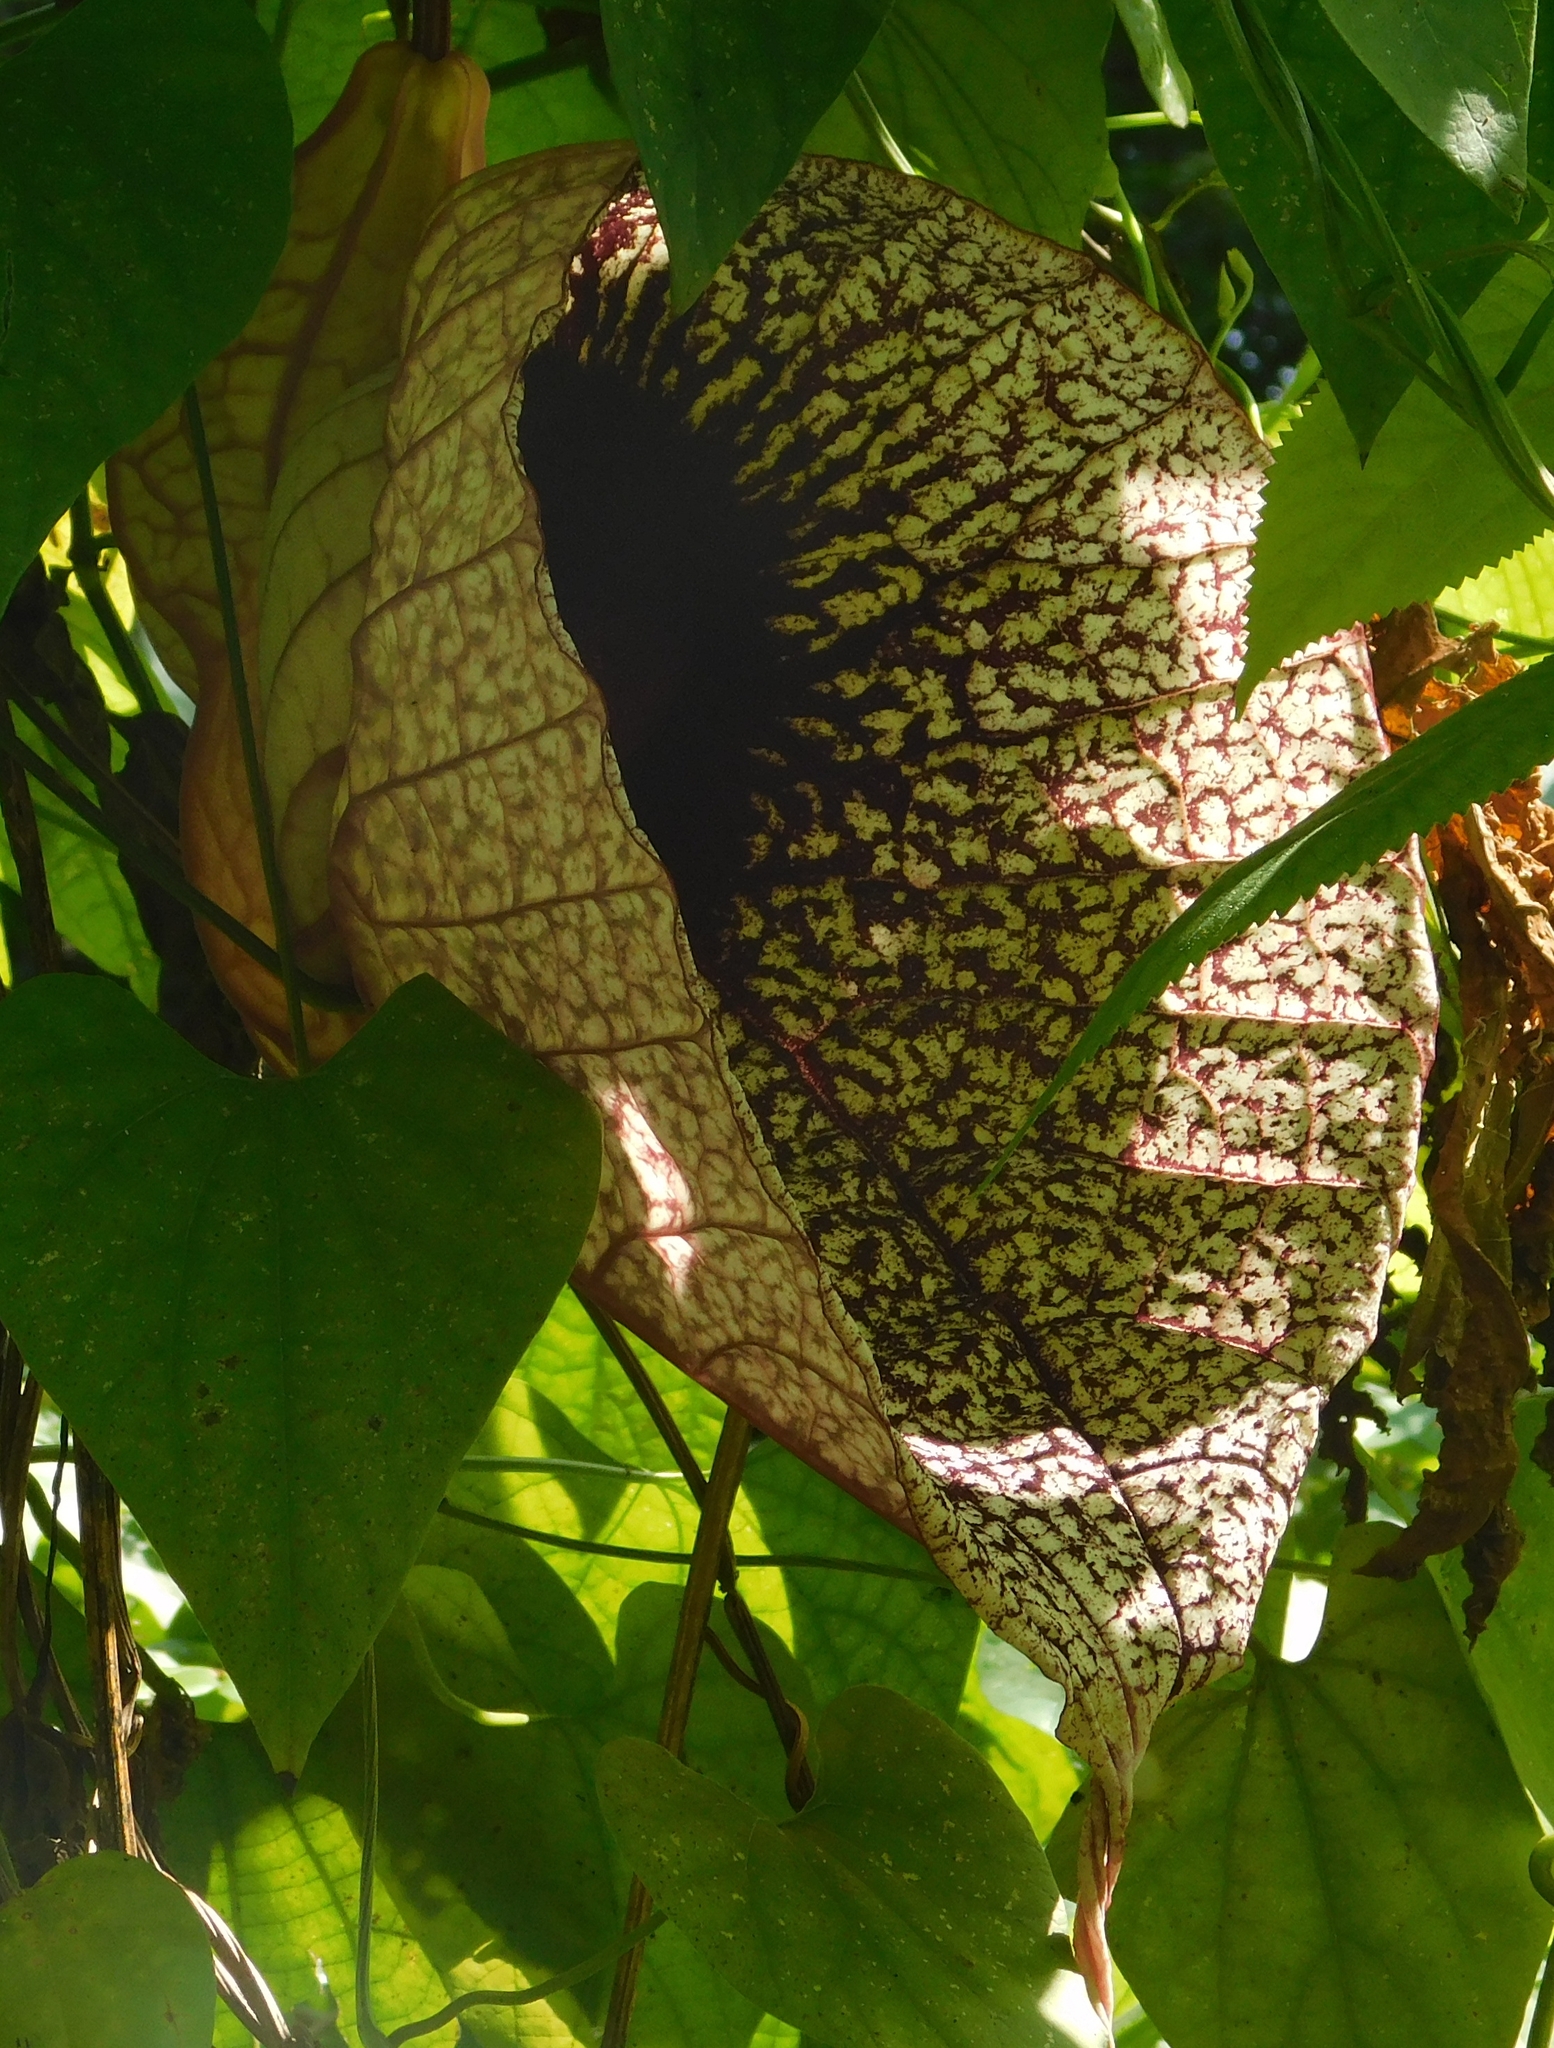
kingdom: Plantae
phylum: Tracheophyta
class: Magnoliopsida
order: Piperales
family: Aristolochiaceae
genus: Aristolochia
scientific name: Aristolochia grandiflora
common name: Pelicanflower
